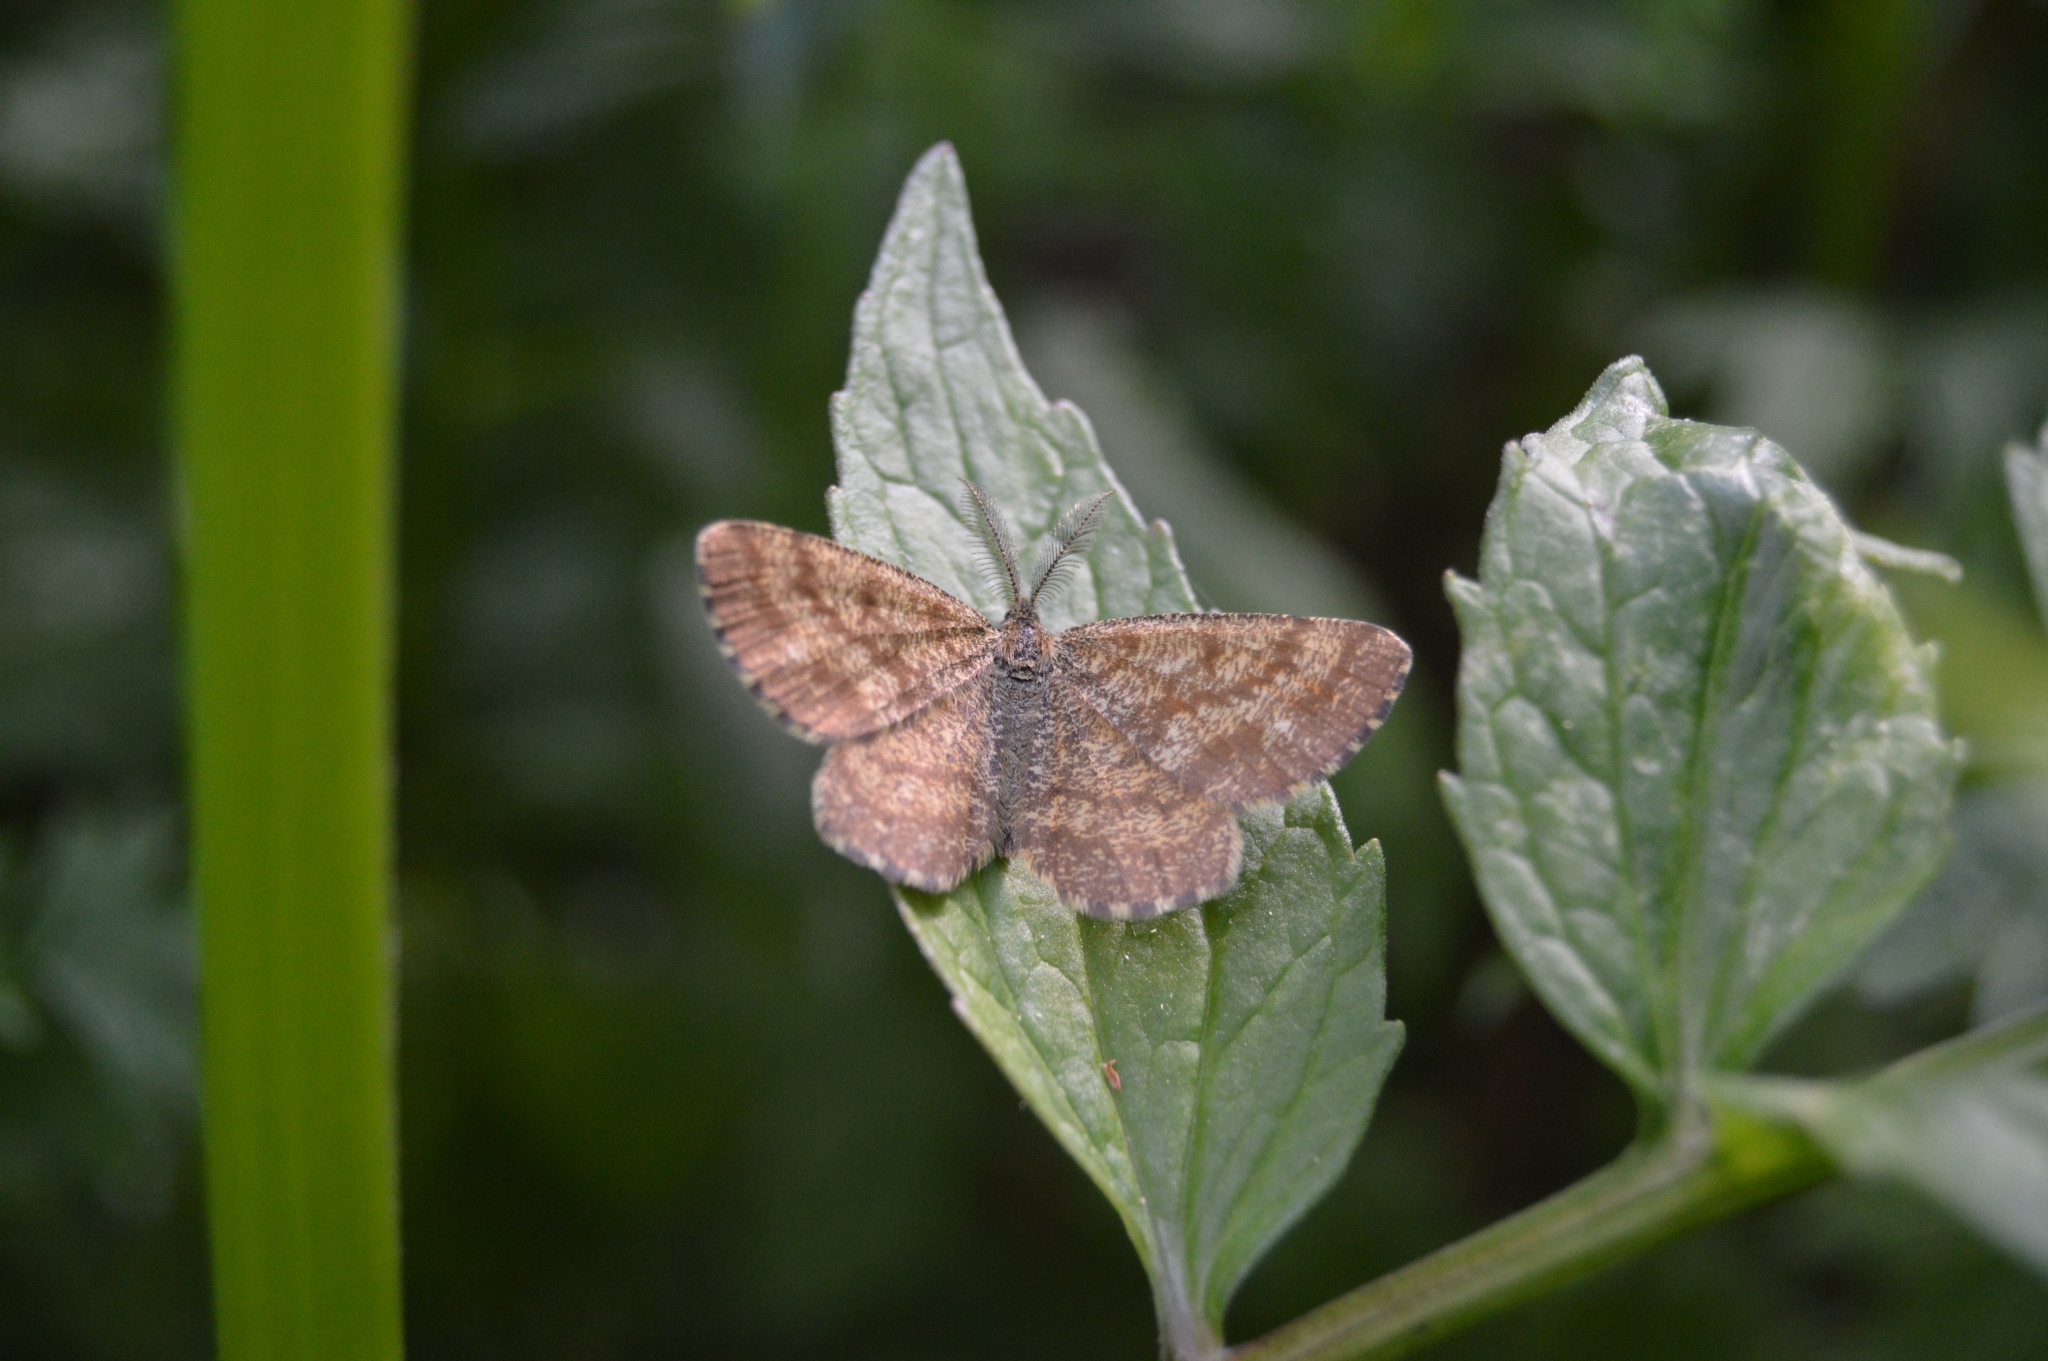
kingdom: Animalia
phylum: Arthropoda
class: Insecta
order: Lepidoptera
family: Geometridae
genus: Ematurga
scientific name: Ematurga atomaria
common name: Common heath
